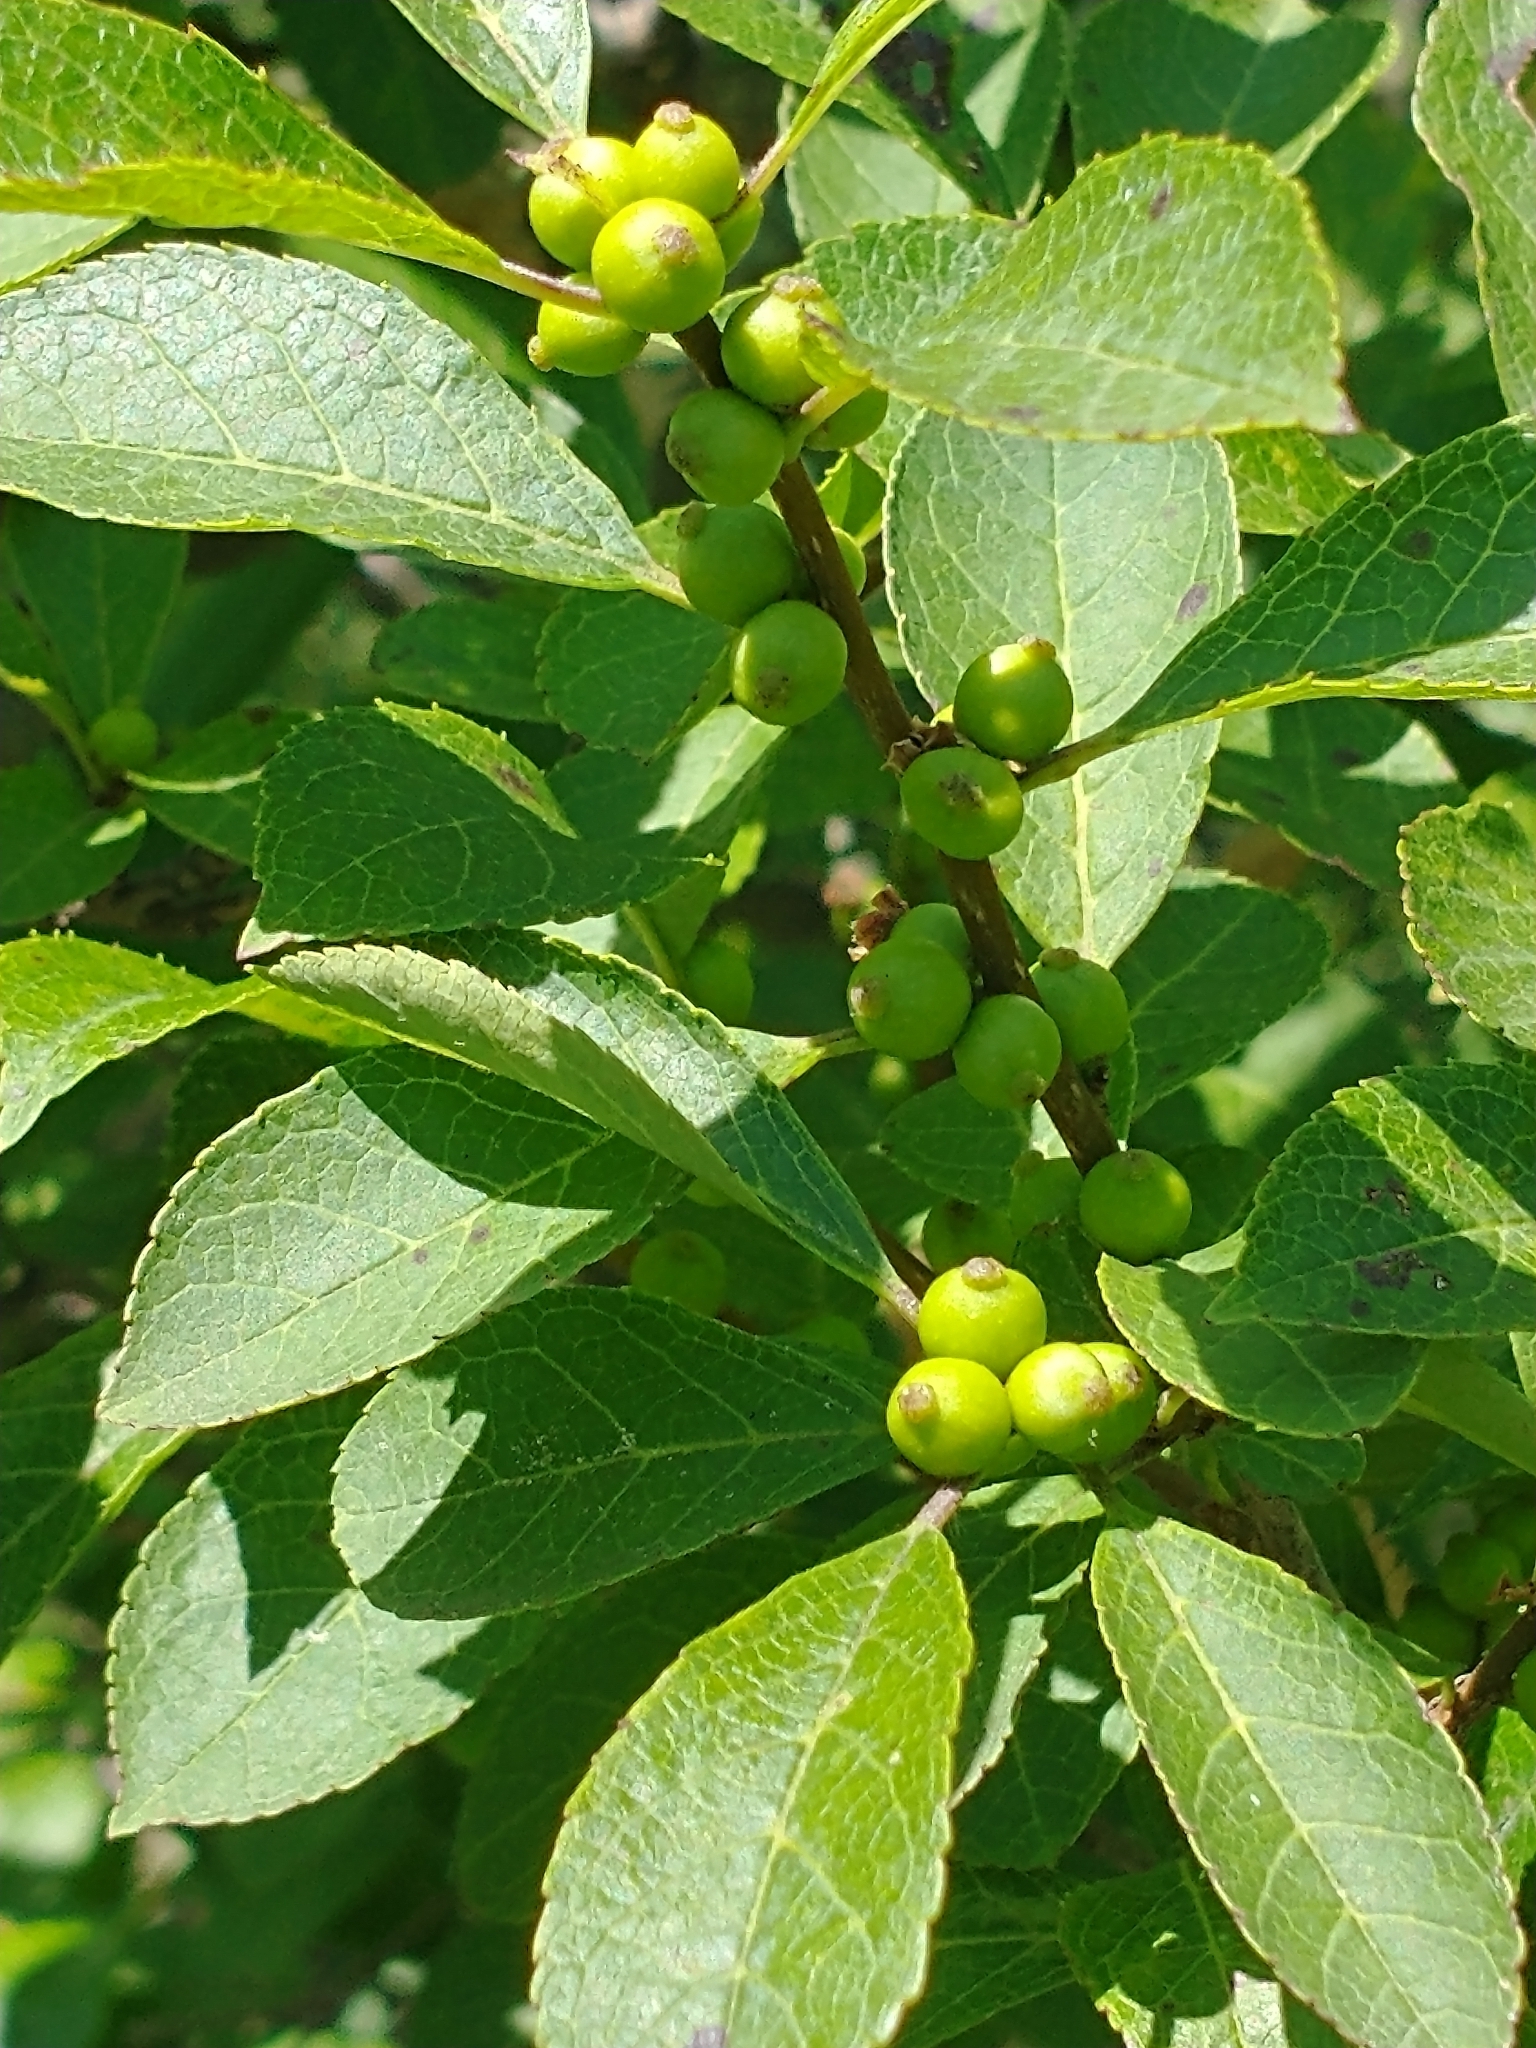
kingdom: Plantae
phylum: Tracheophyta
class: Magnoliopsida
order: Aquifoliales
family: Aquifoliaceae
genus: Ilex
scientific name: Ilex verticillata
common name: Virginia winterberry
